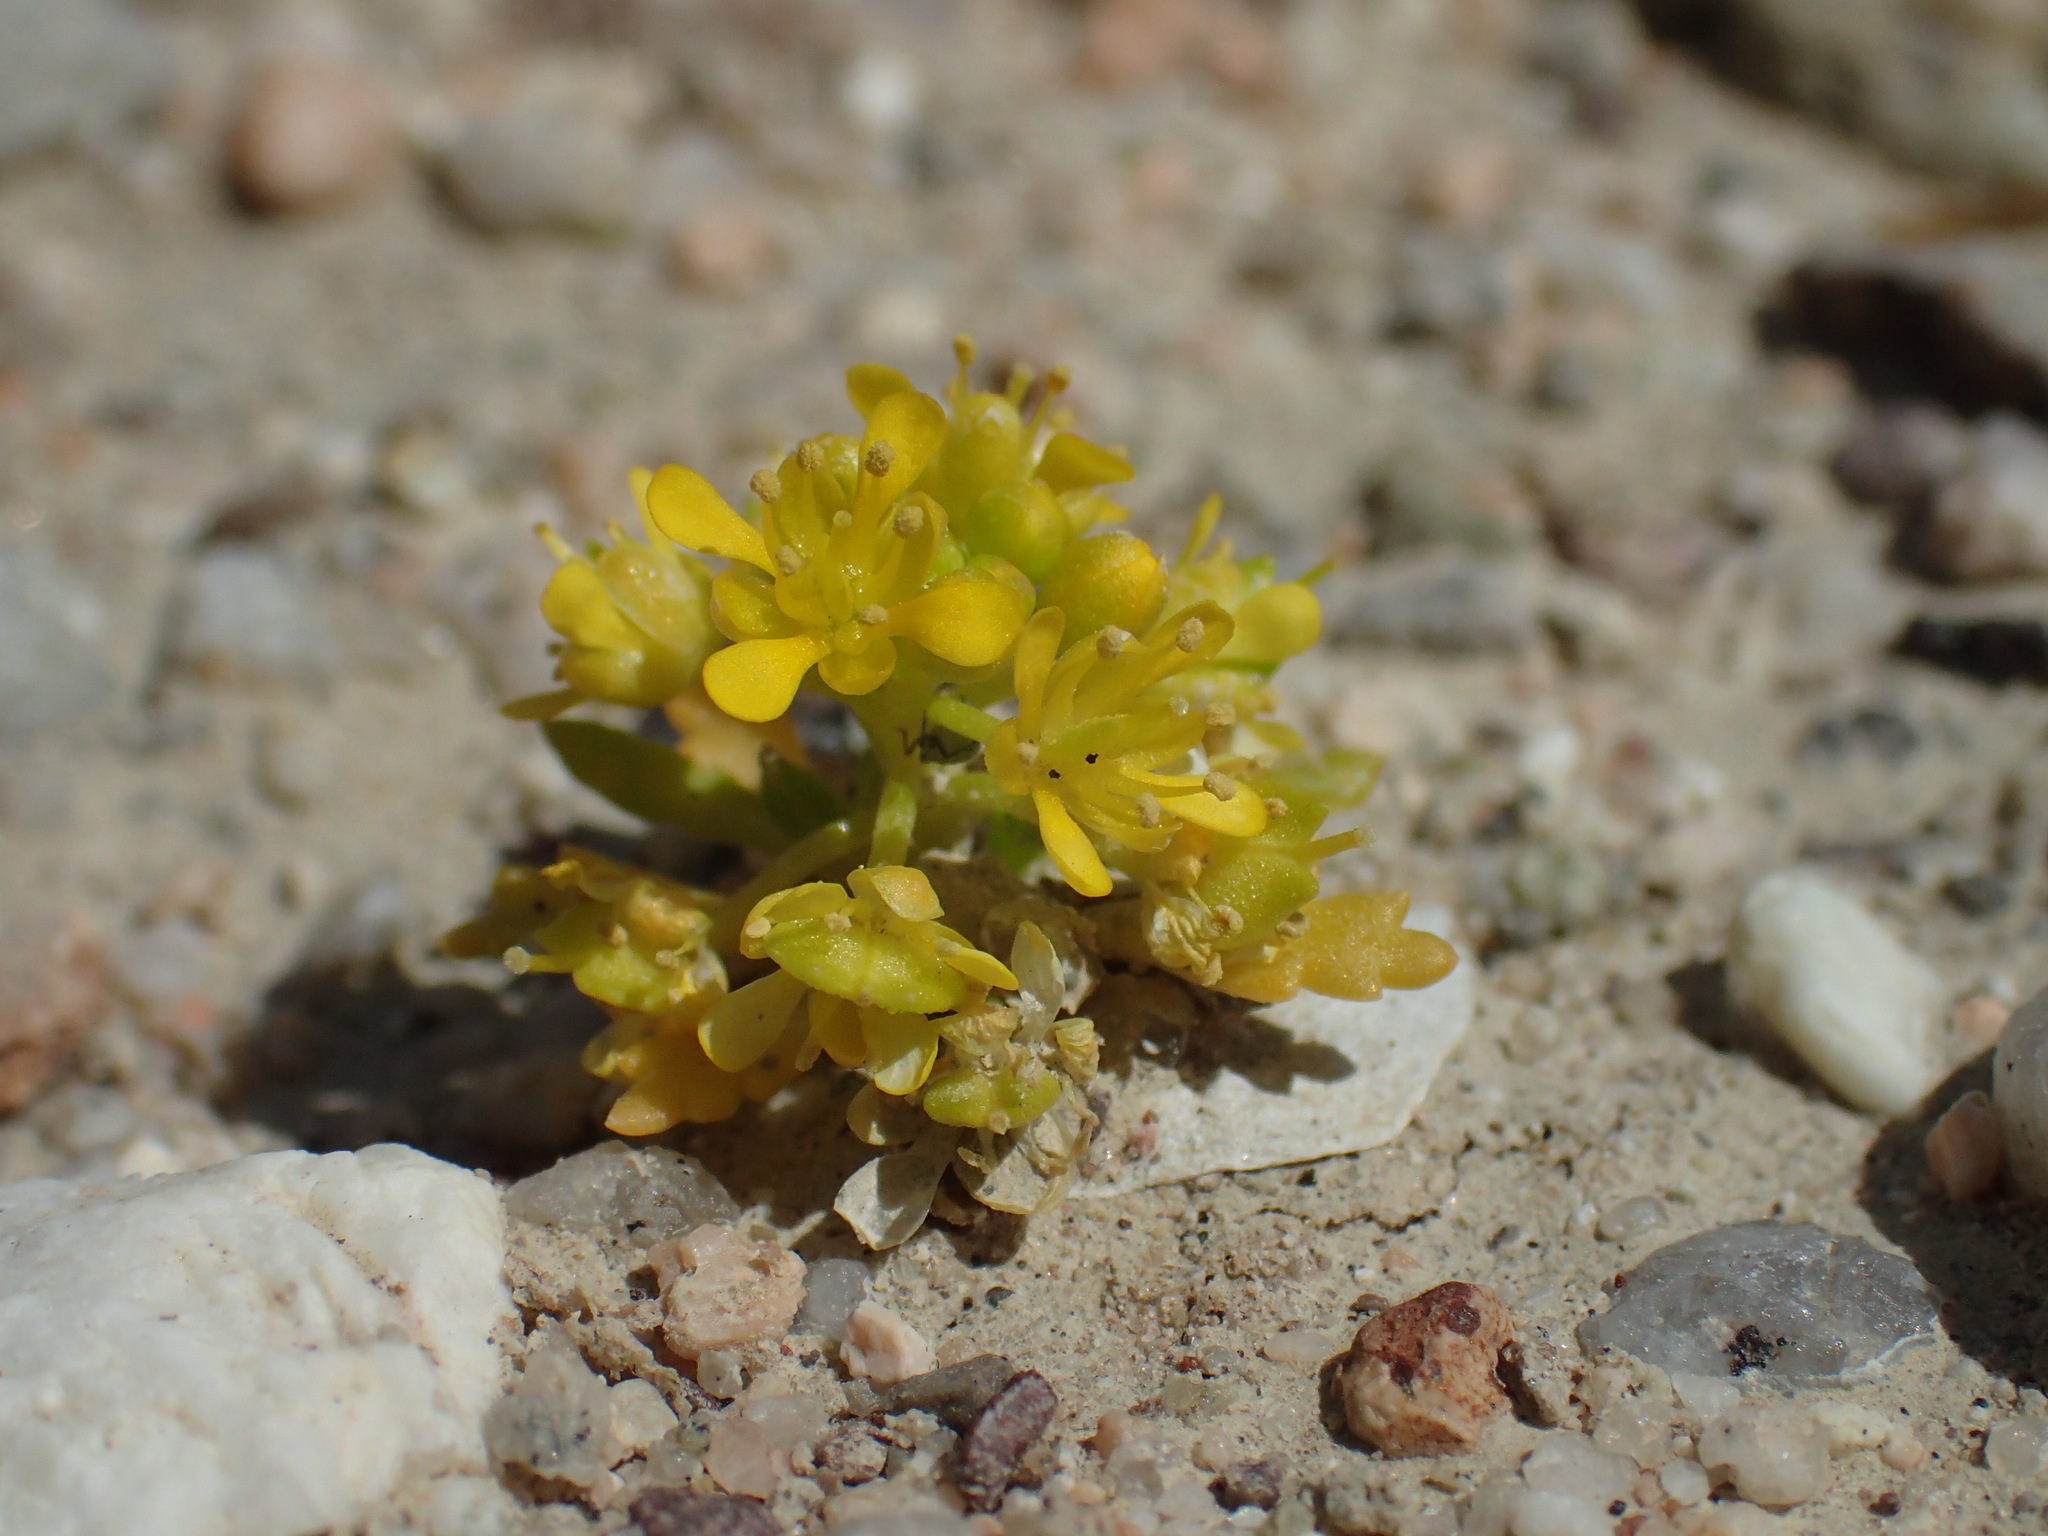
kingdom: Plantae
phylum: Tracheophyta
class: Magnoliopsida
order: Brassicales
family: Brassicaceae
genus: Lepidium
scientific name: Lepidium flavum
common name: Yellow pepperwort
